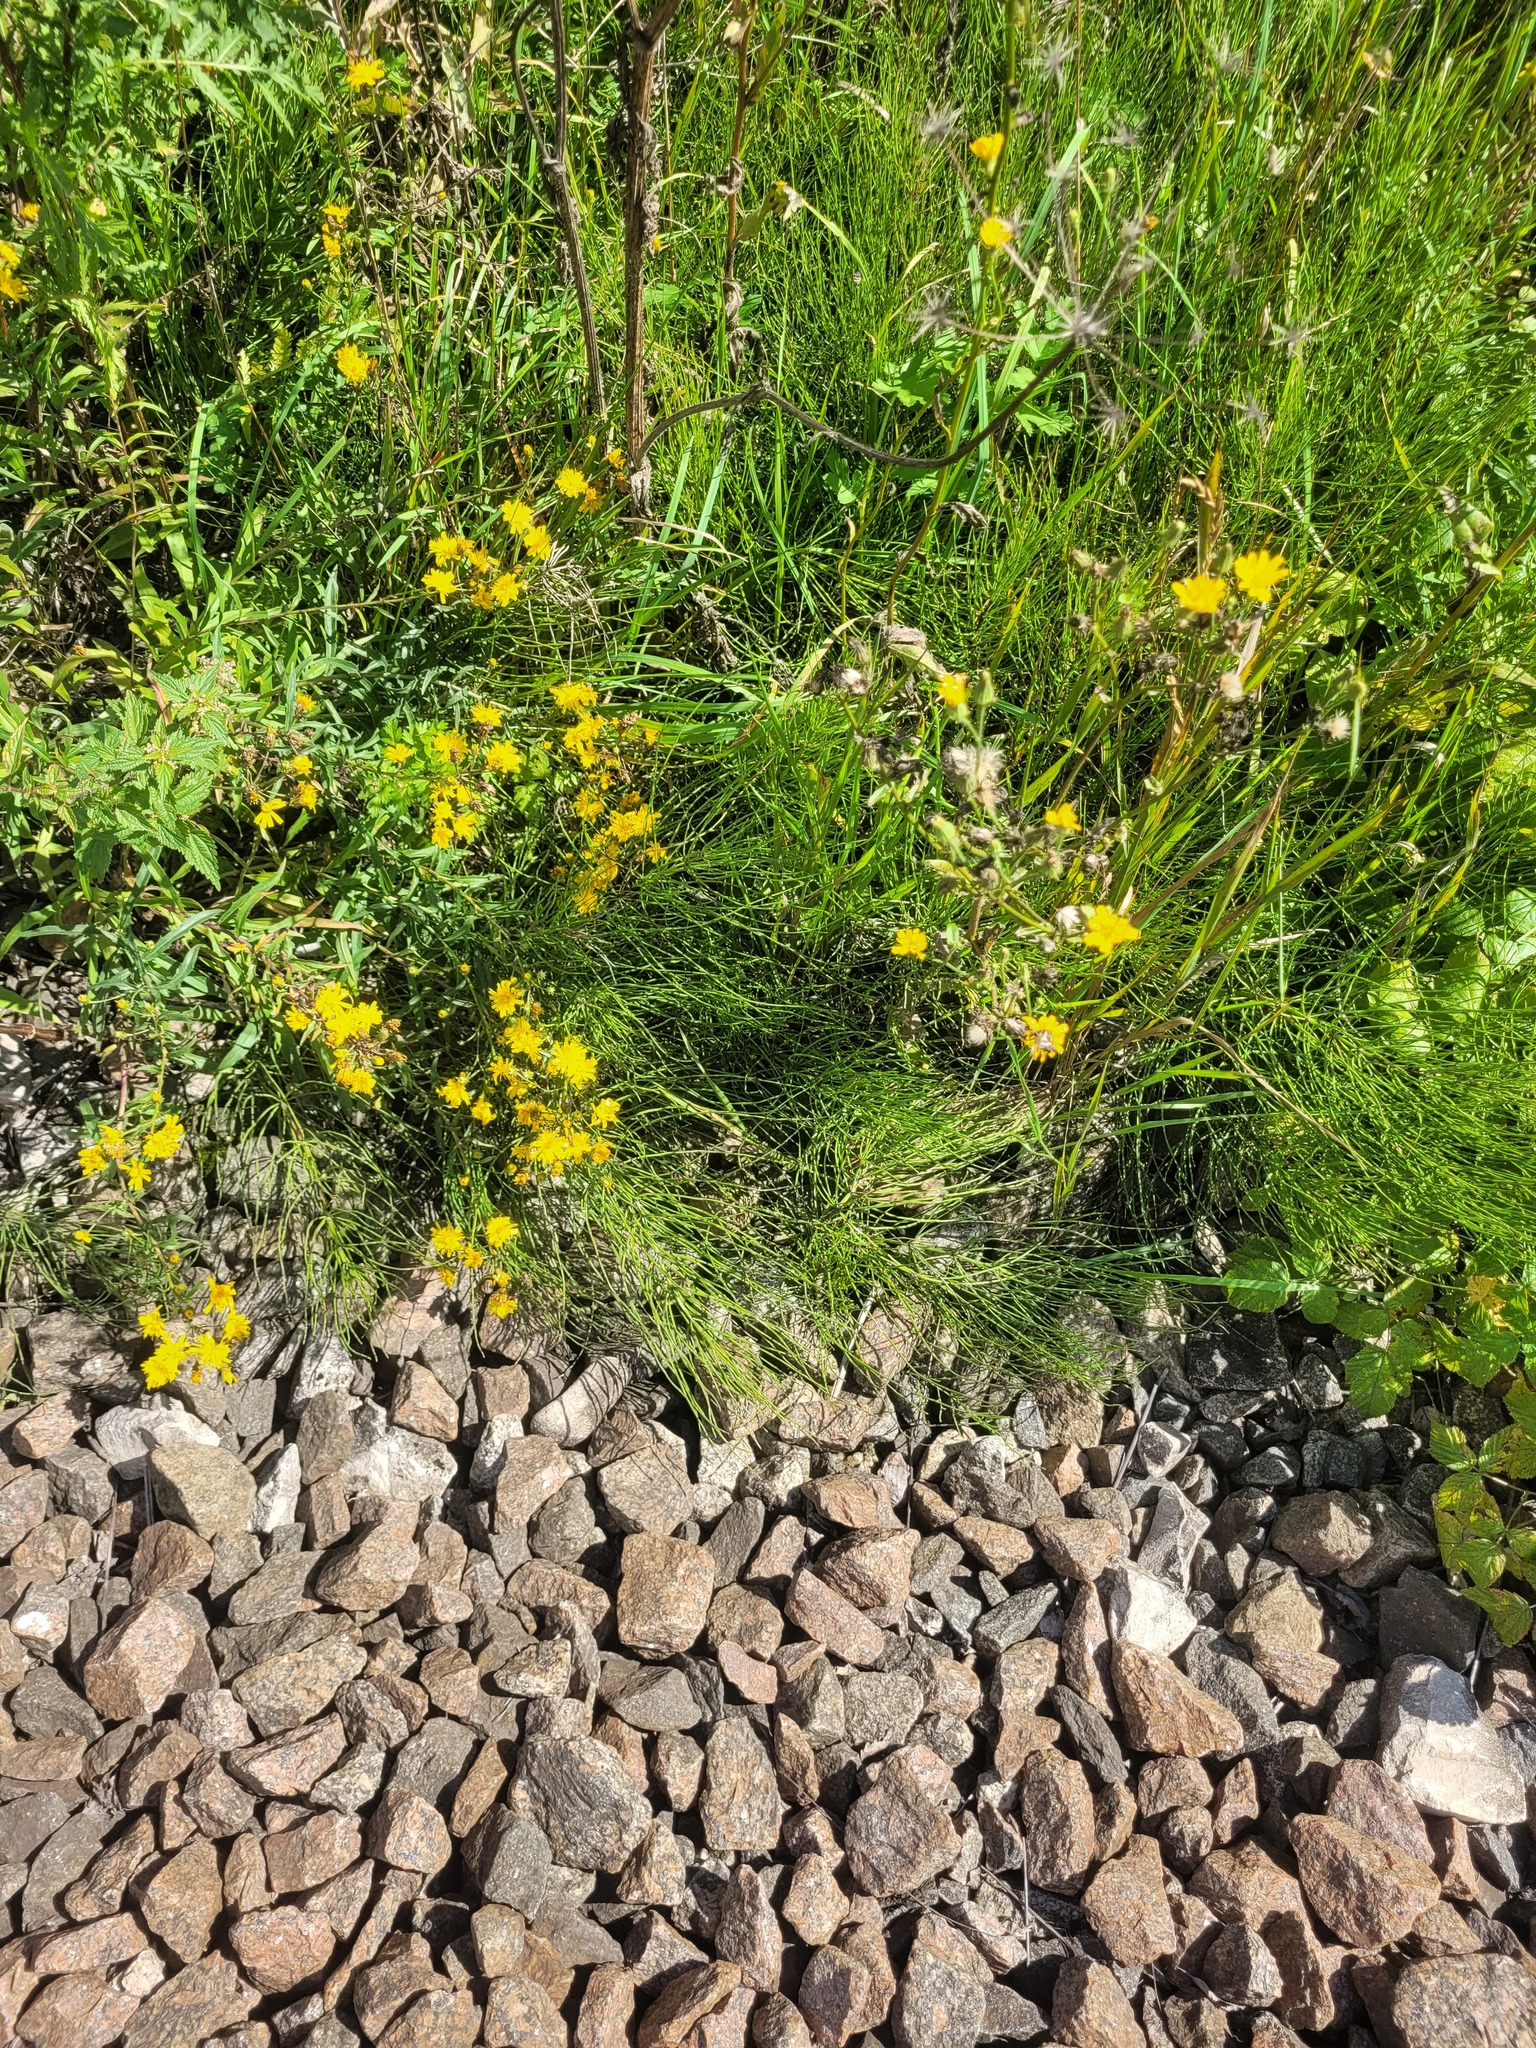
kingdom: Plantae
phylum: Tracheophyta
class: Polypodiopsida
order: Equisetales
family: Equisetaceae
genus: Equisetum
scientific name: Equisetum arvense
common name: Field horsetail
